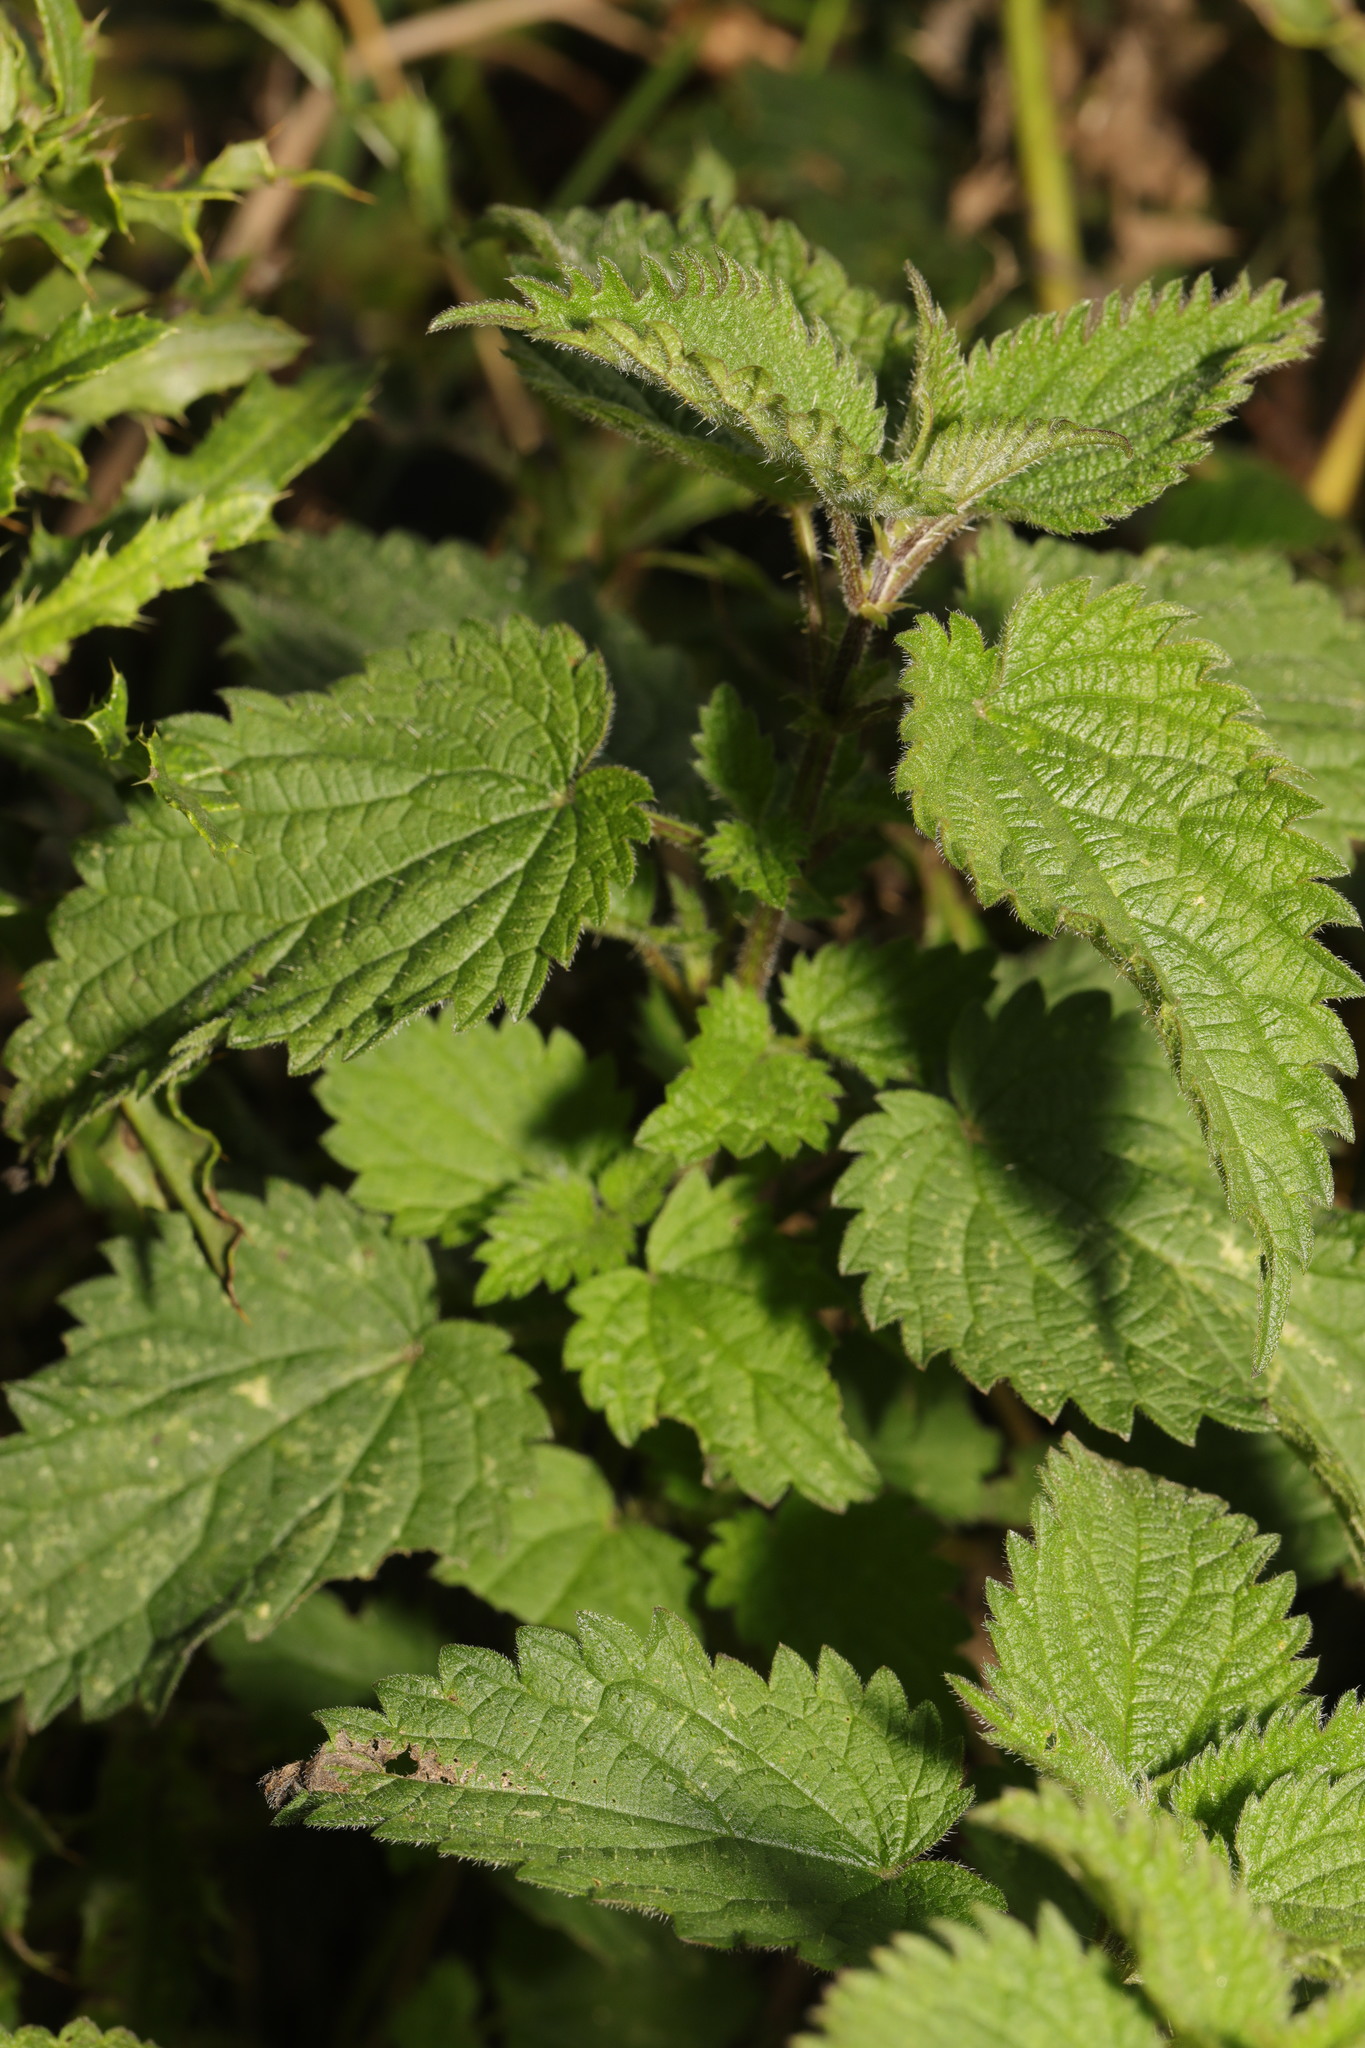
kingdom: Plantae
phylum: Tracheophyta
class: Magnoliopsida
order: Rosales
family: Urticaceae
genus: Urtica
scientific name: Urtica dioica
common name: Common nettle
